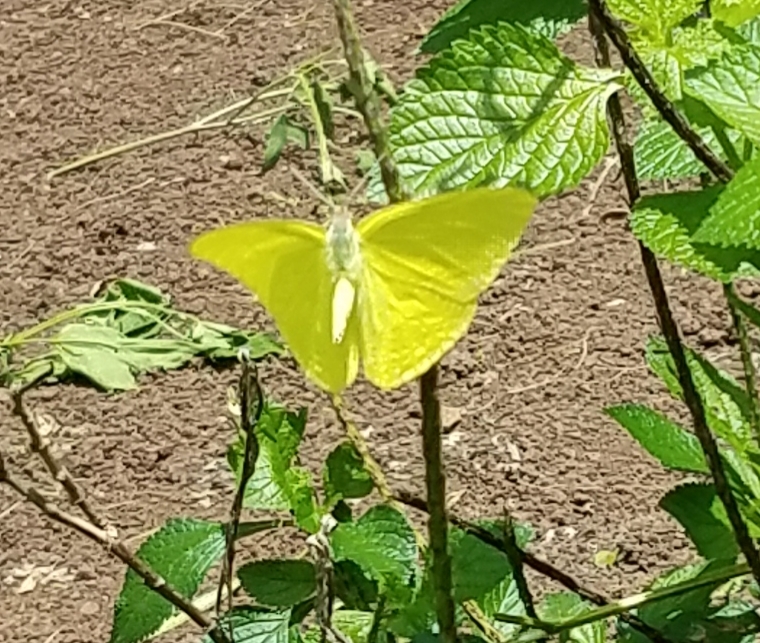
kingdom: Animalia
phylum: Arthropoda
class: Insecta
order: Lepidoptera
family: Pieridae
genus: Phoebis
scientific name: Phoebis marcellina
